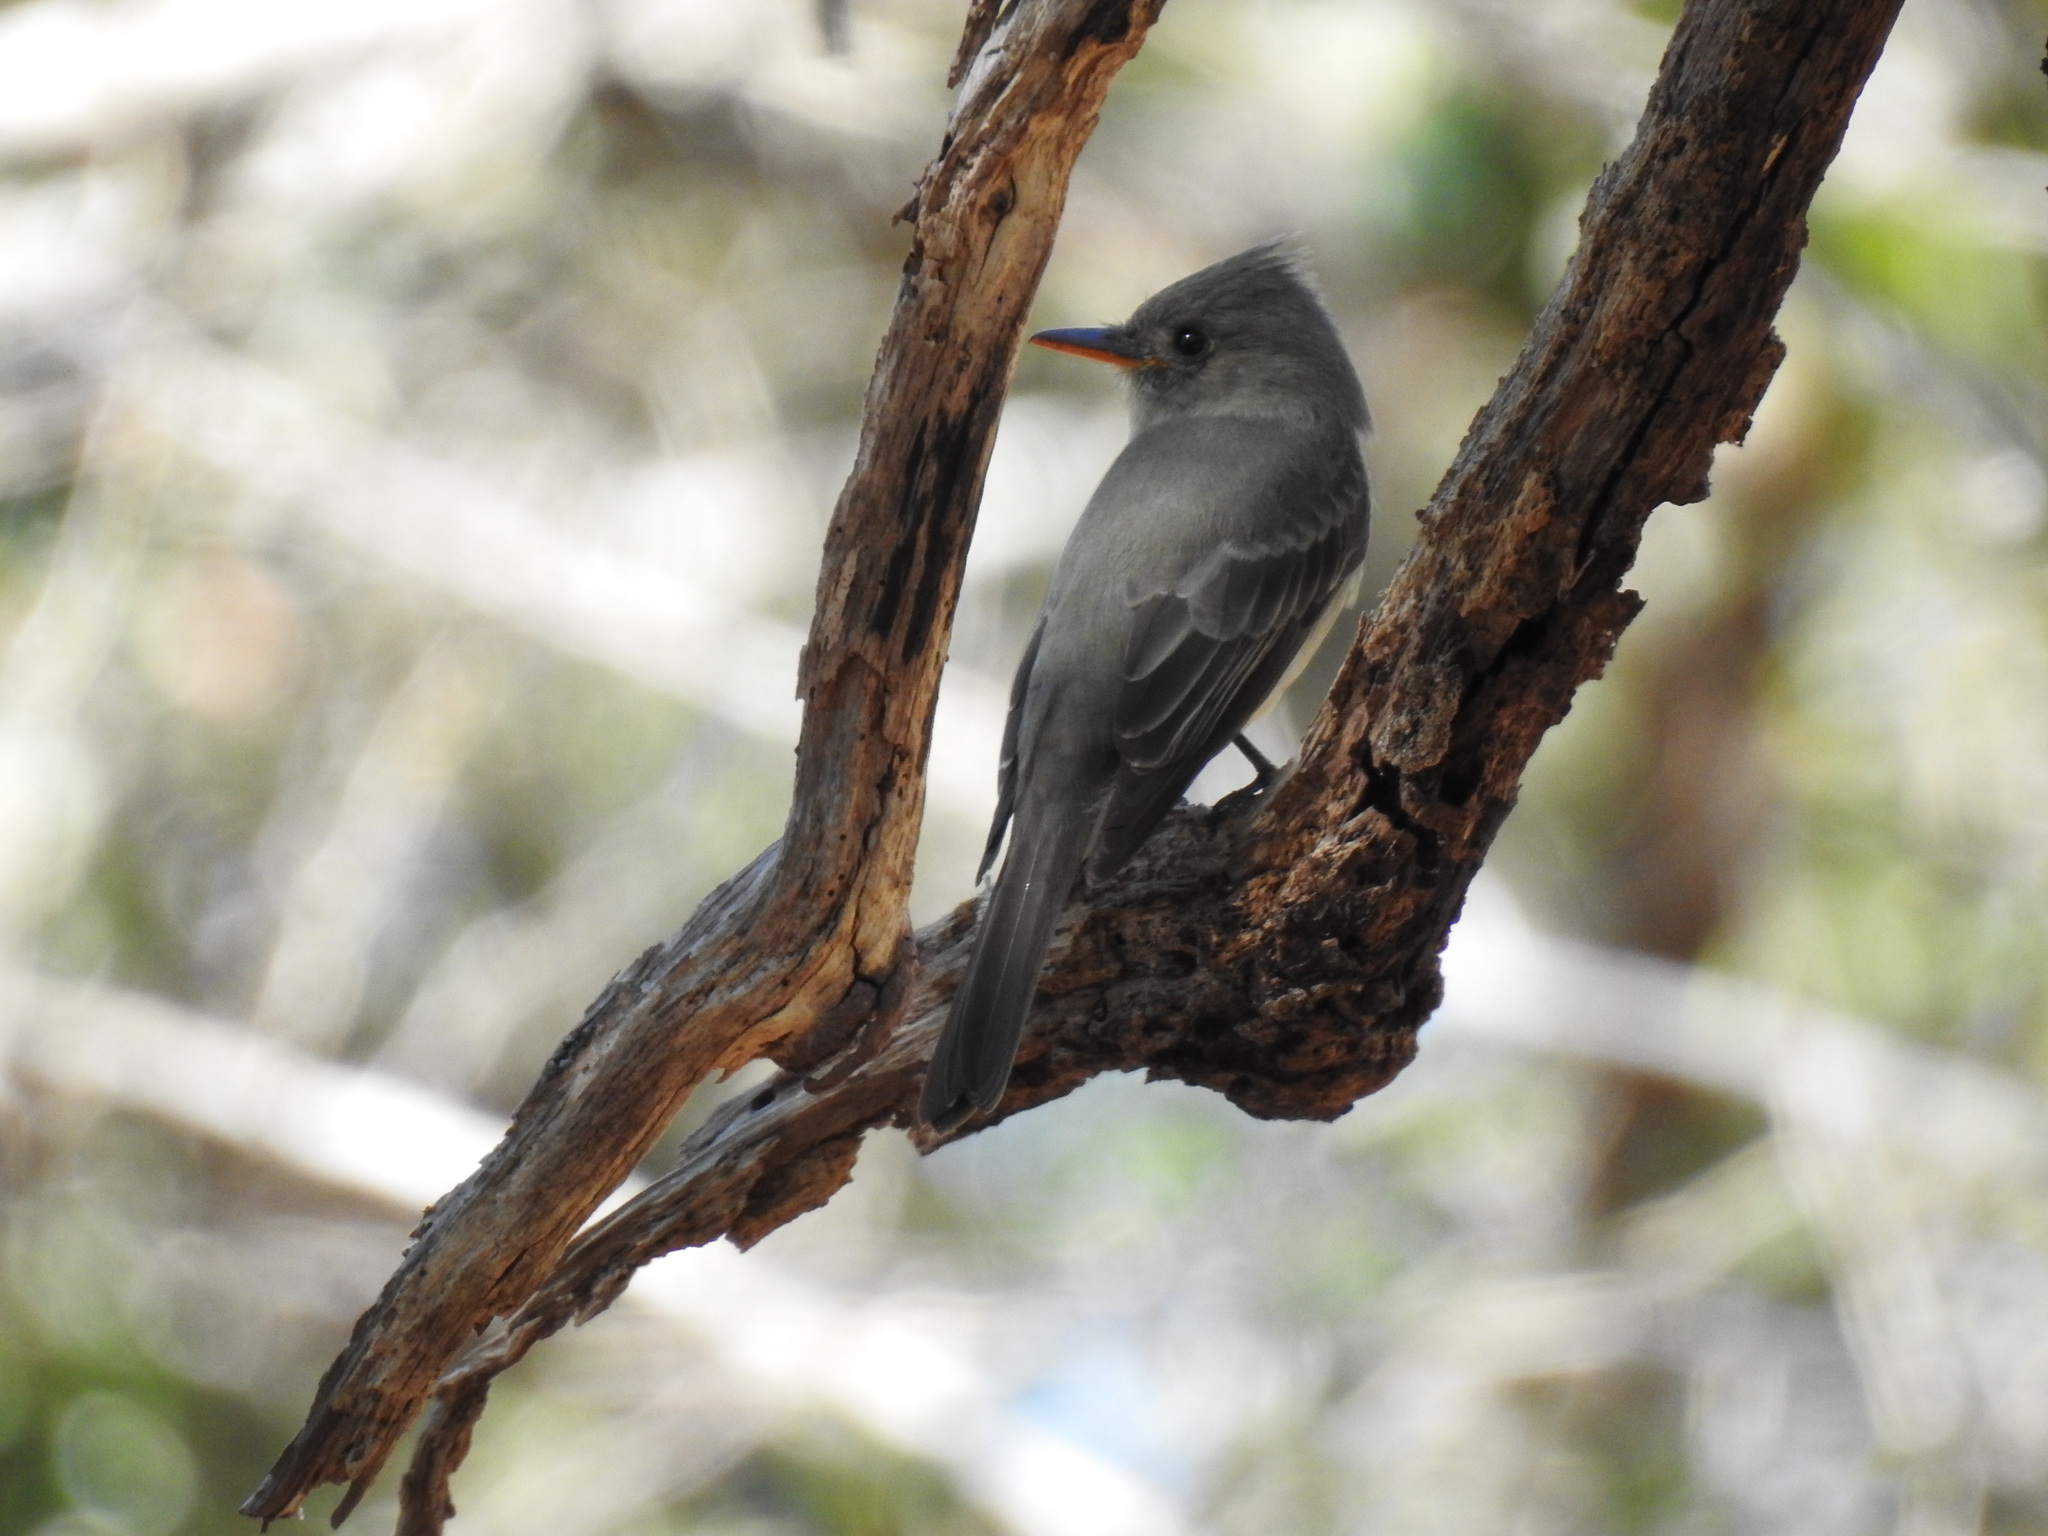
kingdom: Animalia
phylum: Chordata
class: Aves
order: Passeriformes
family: Tyrannidae
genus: Contopus
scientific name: Contopus pertinax
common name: Greater pewee
